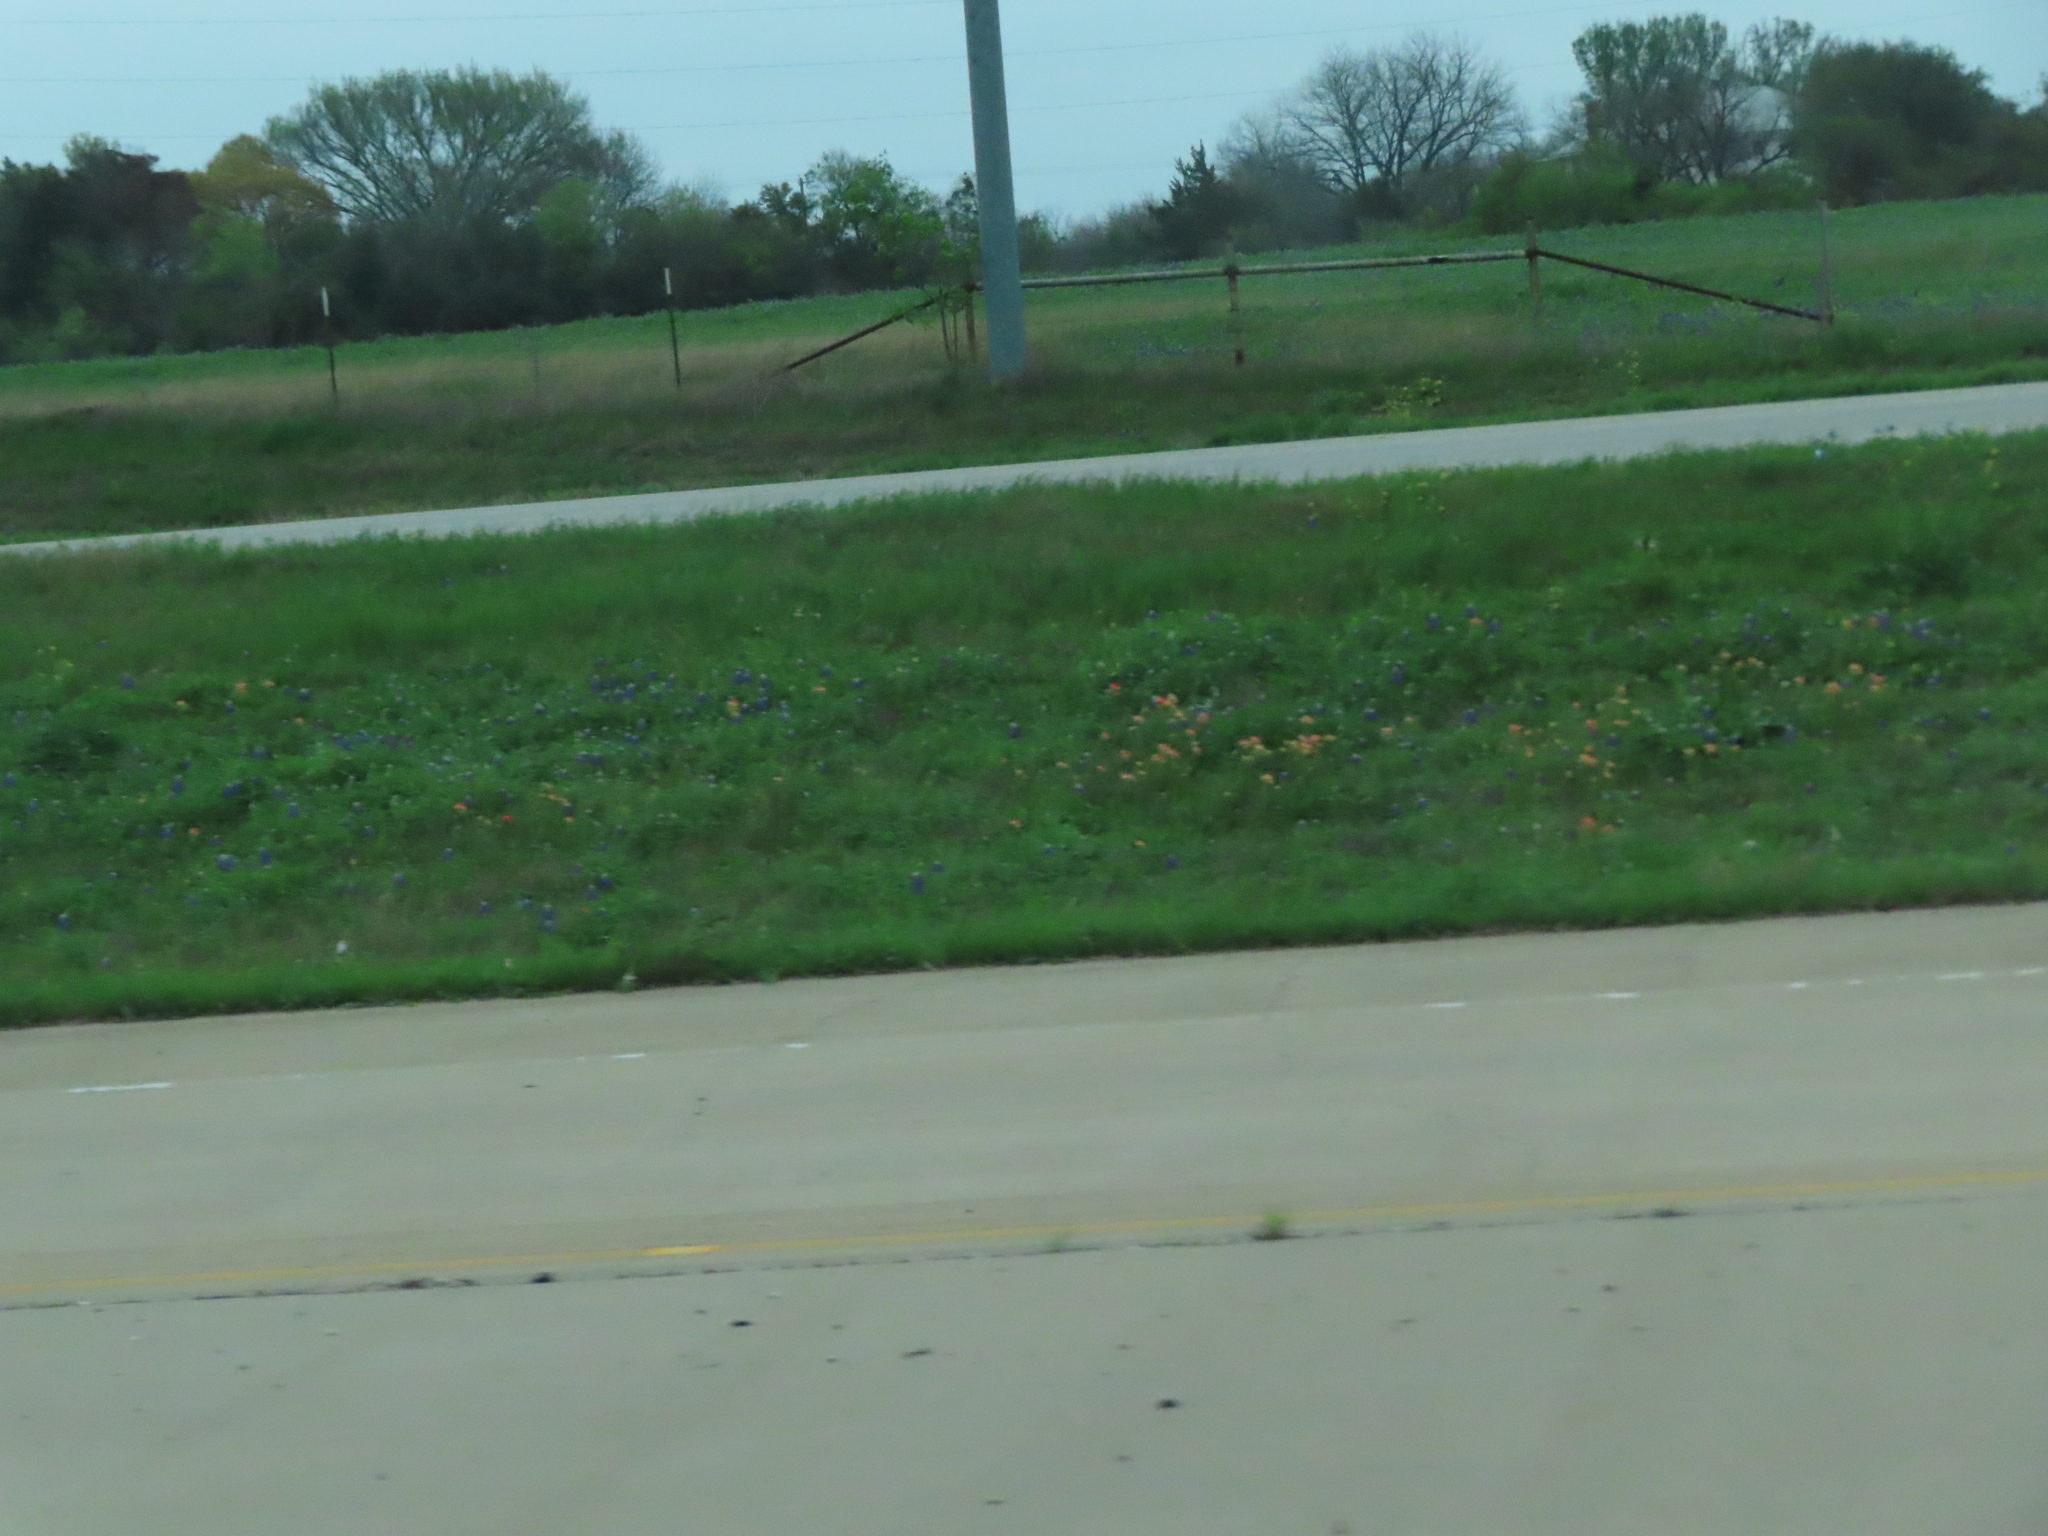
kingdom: Plantae
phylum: Tracheophyta
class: Magnoliopsida
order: Lamiales
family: Orobanchaceae
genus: Castilleja
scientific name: Castilleja indivisa
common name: Texas paintbrush
